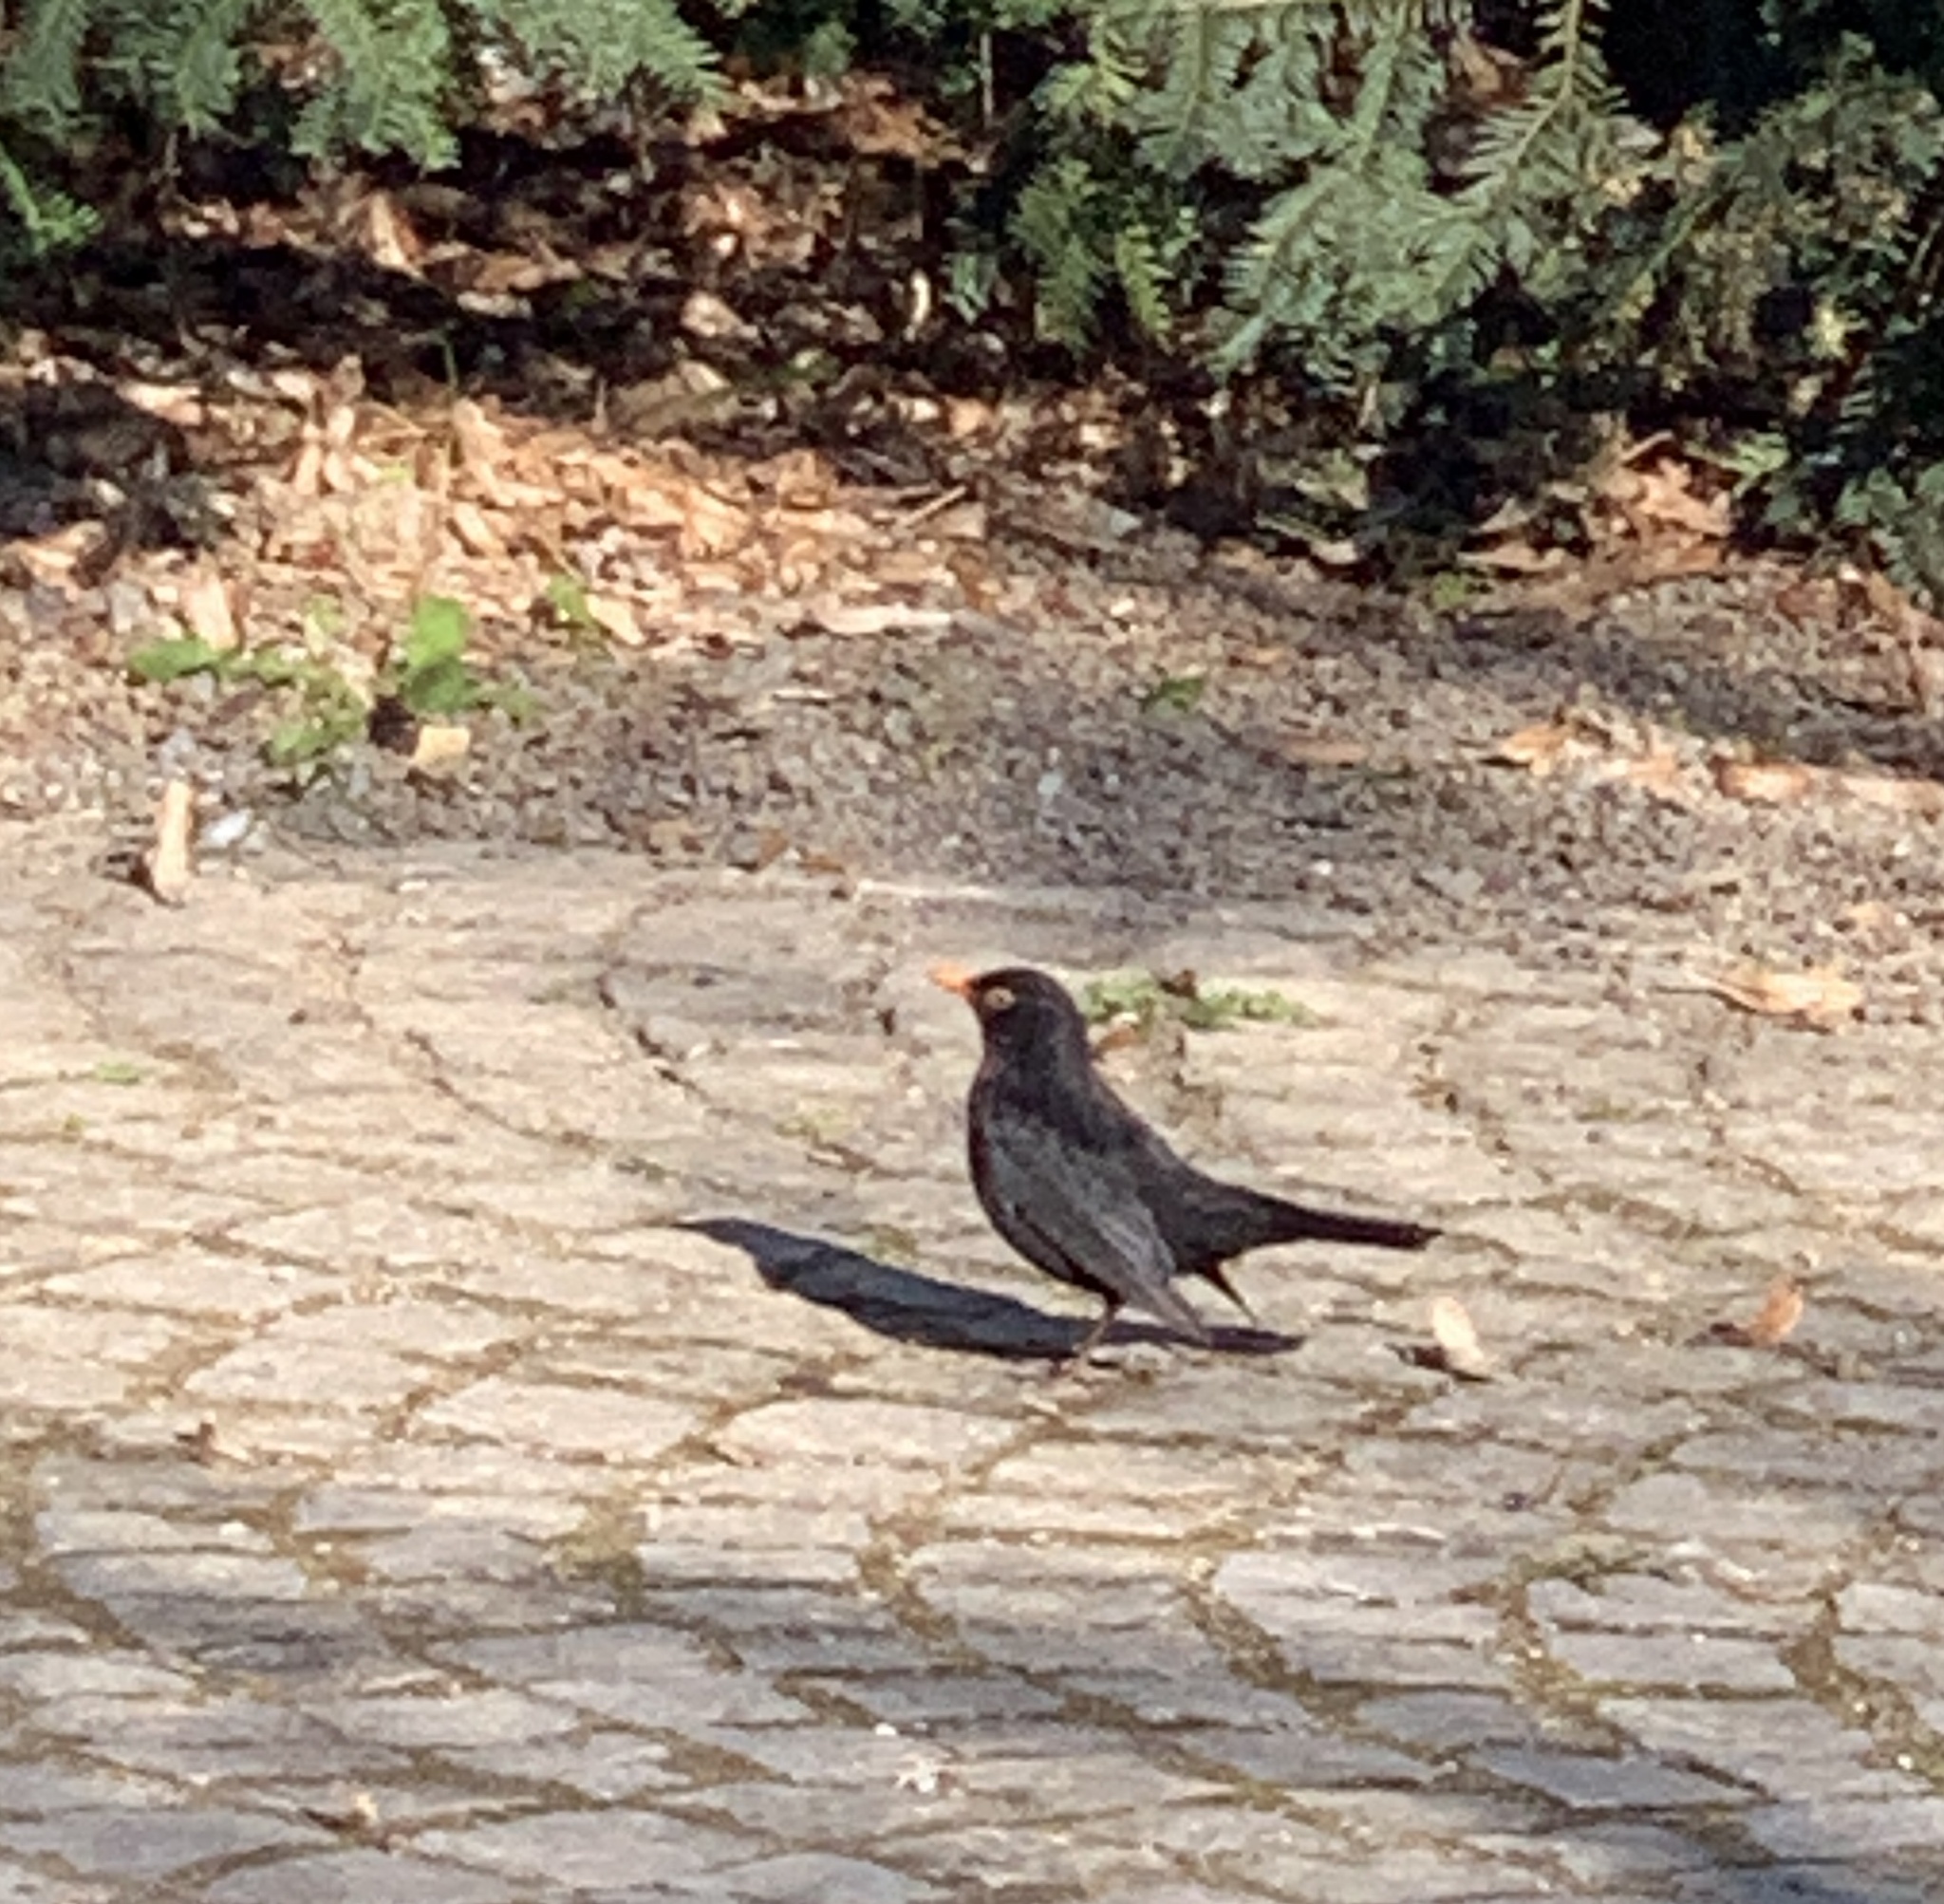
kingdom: Animalia
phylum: Chordata
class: Aves
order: Passeriformes
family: Turdidae
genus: Turdus
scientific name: Turdus merula
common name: Common blackbird
